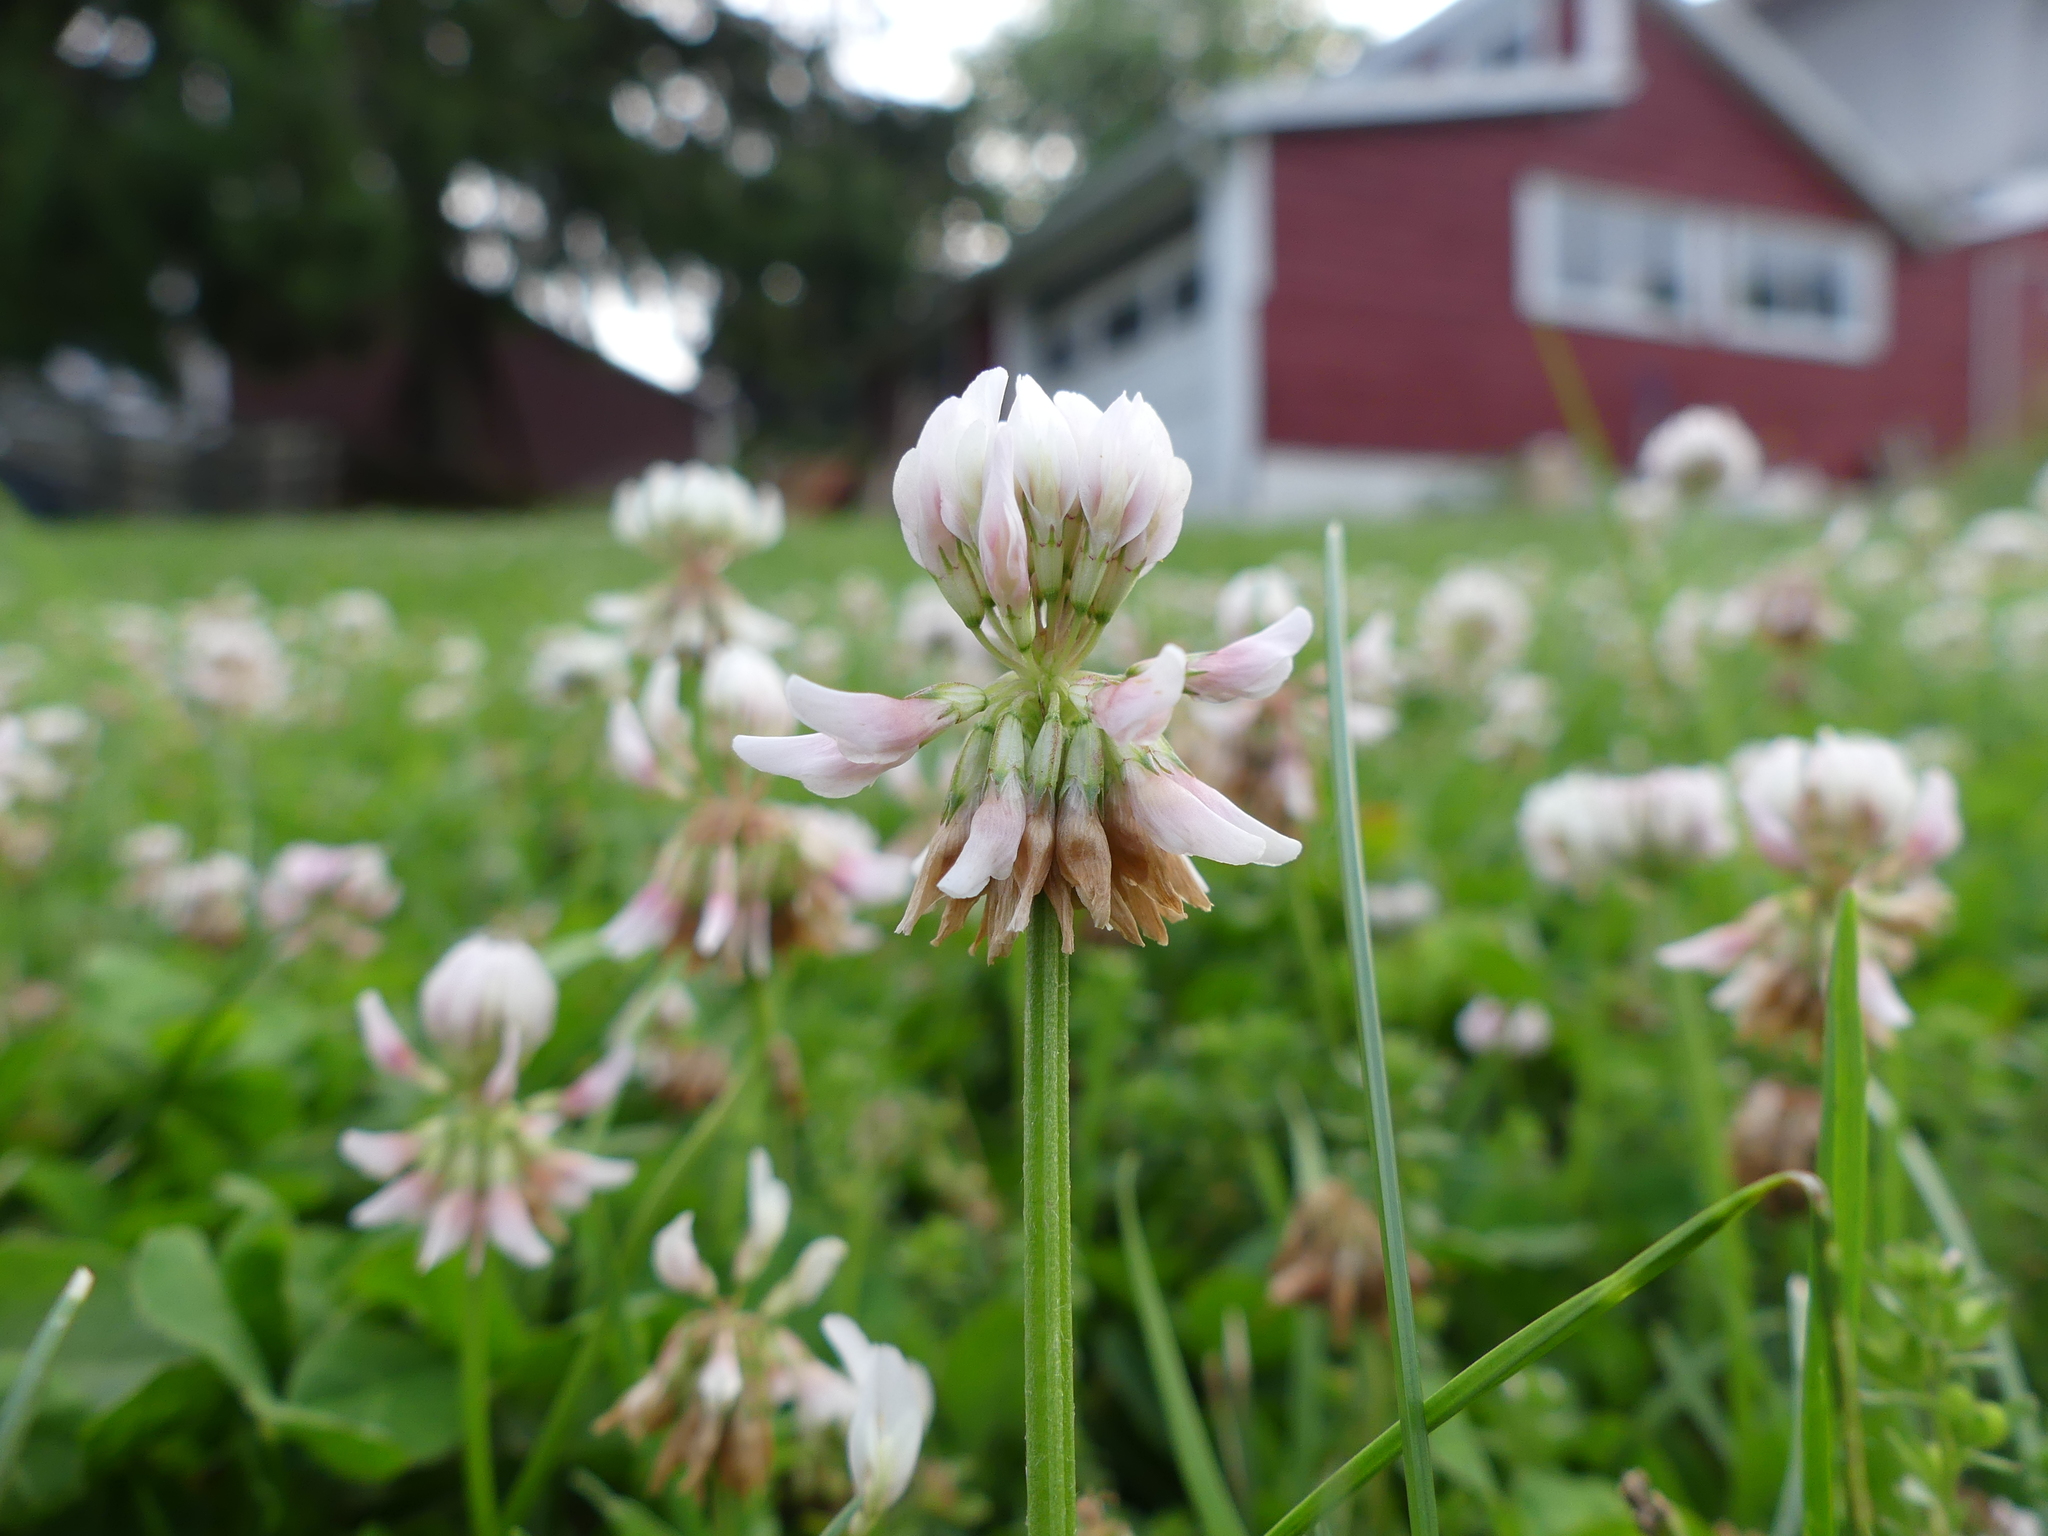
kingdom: Plantae
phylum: Tracheophyta
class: Magnoliopsida
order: Fabales
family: Fabaceae
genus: Trifolium
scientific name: Trifolium repens
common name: White clover
